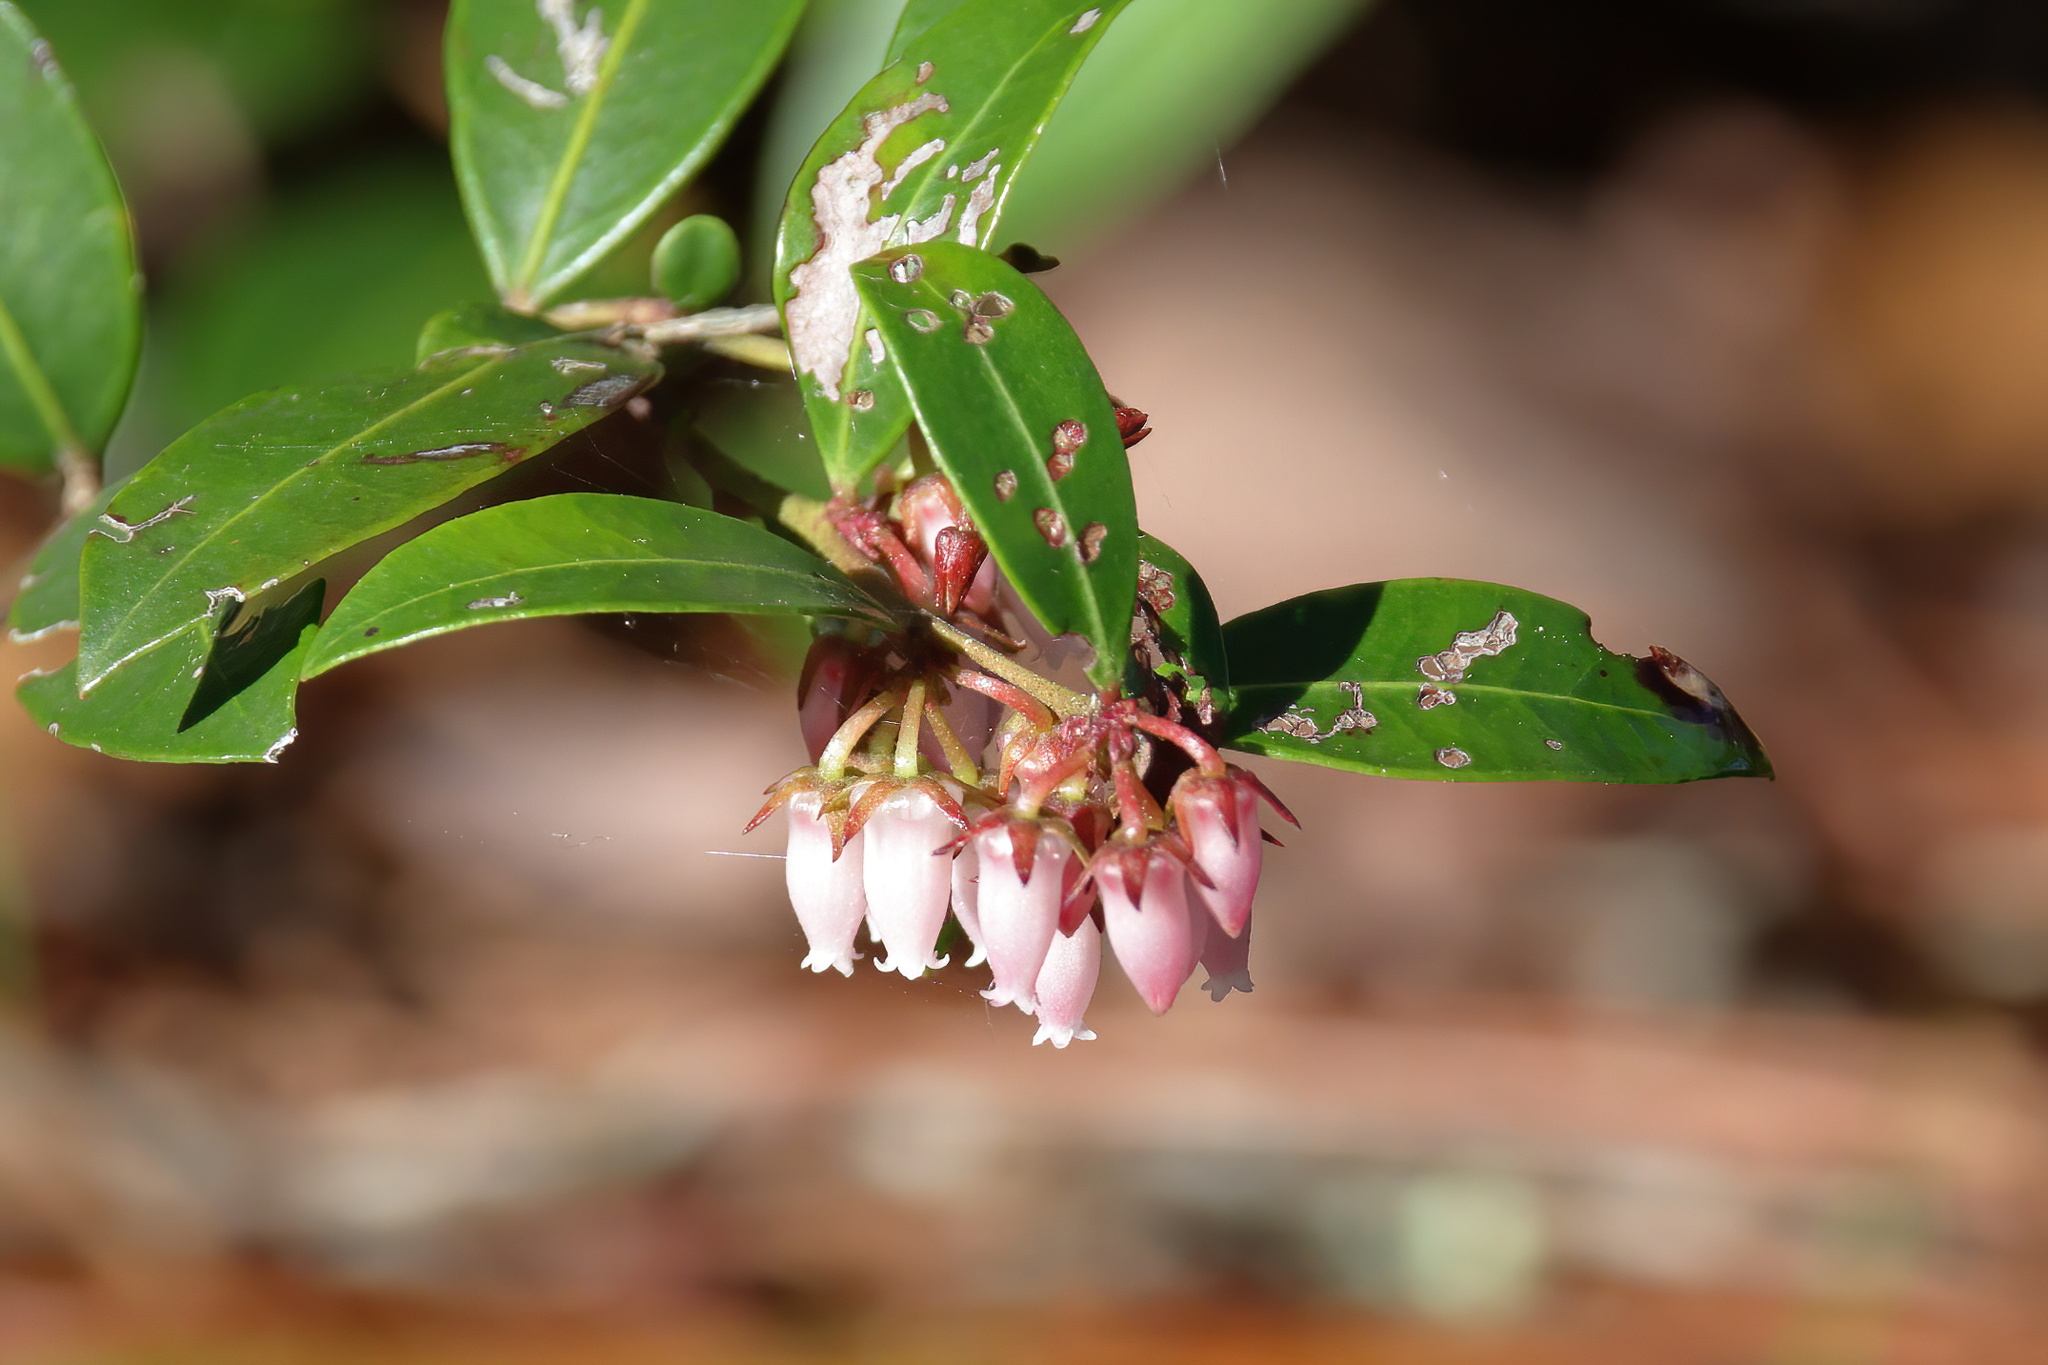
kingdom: Plantae
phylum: Tracheophyta
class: Magnoliopsida
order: Ericales
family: Ericaceae
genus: Lyonia
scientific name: Lyonia lucida
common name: Fetterbush
